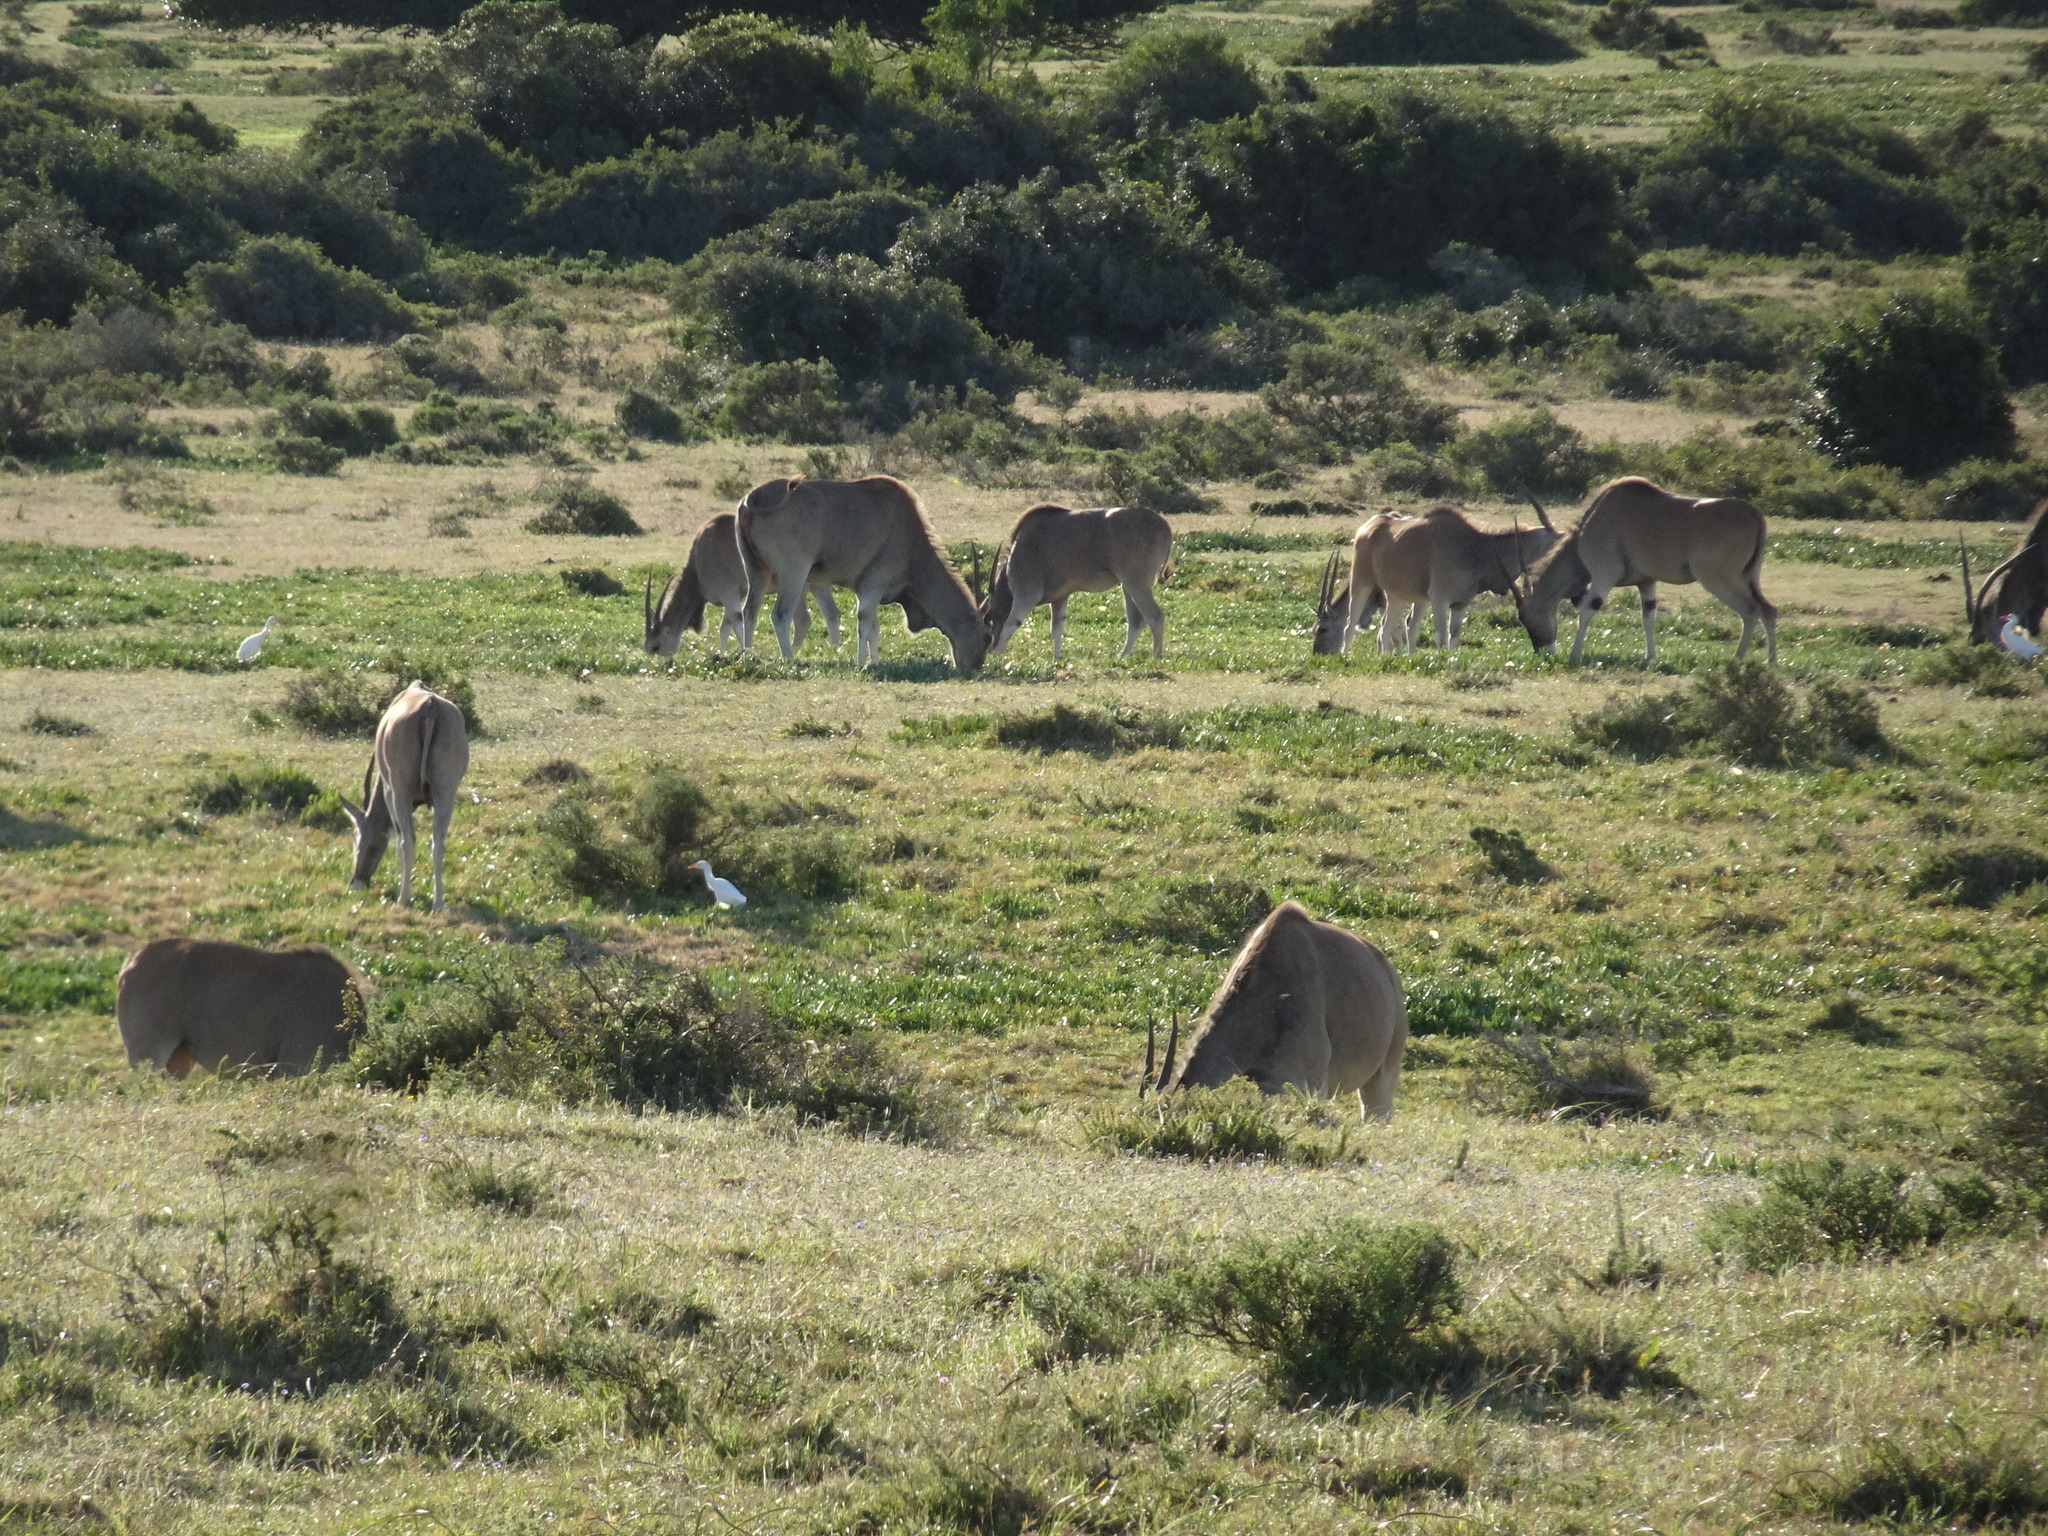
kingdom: Animalia
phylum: Chordata
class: Aves
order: Pelecaniformes
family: Ardeidae
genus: Bubulcus
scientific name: Bubulcus ibis
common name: Cattle egret
